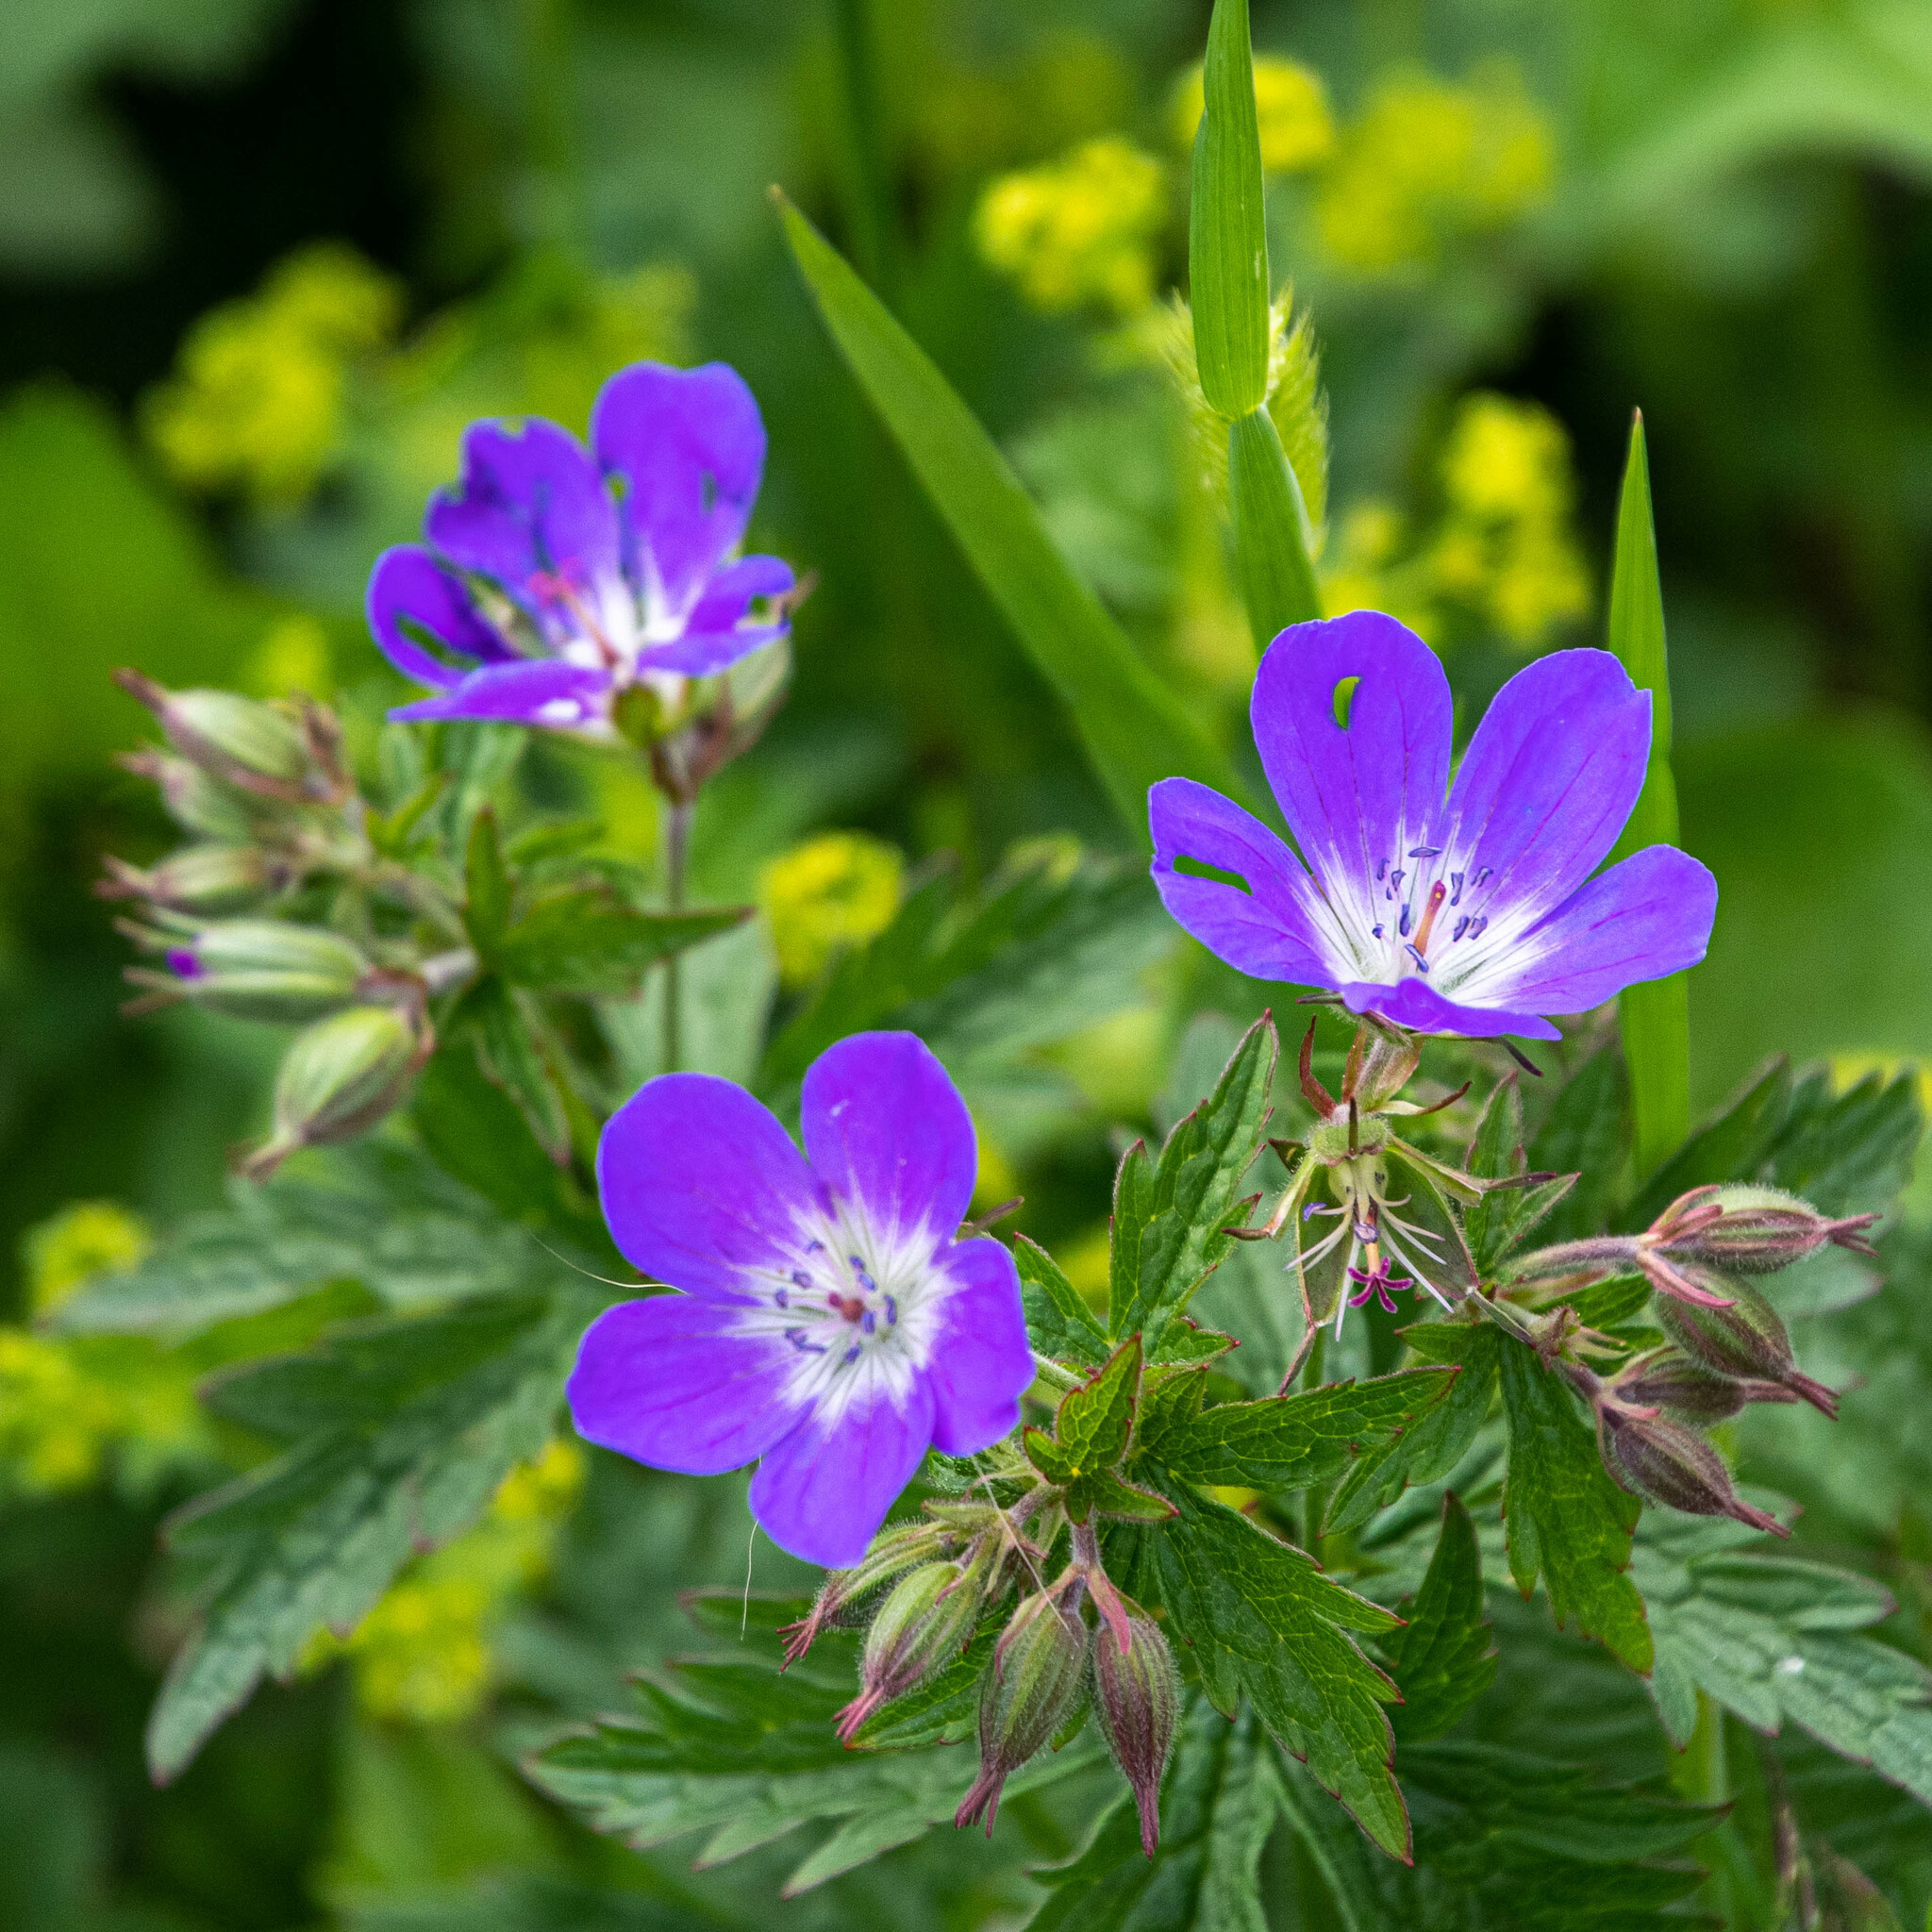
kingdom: Plantae
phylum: Tracheophyta
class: Magnoliopsida
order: Geraniales
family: Geraniaceae
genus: Geranium
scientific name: Geranium sylvaticum
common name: Wood crane's-bill
